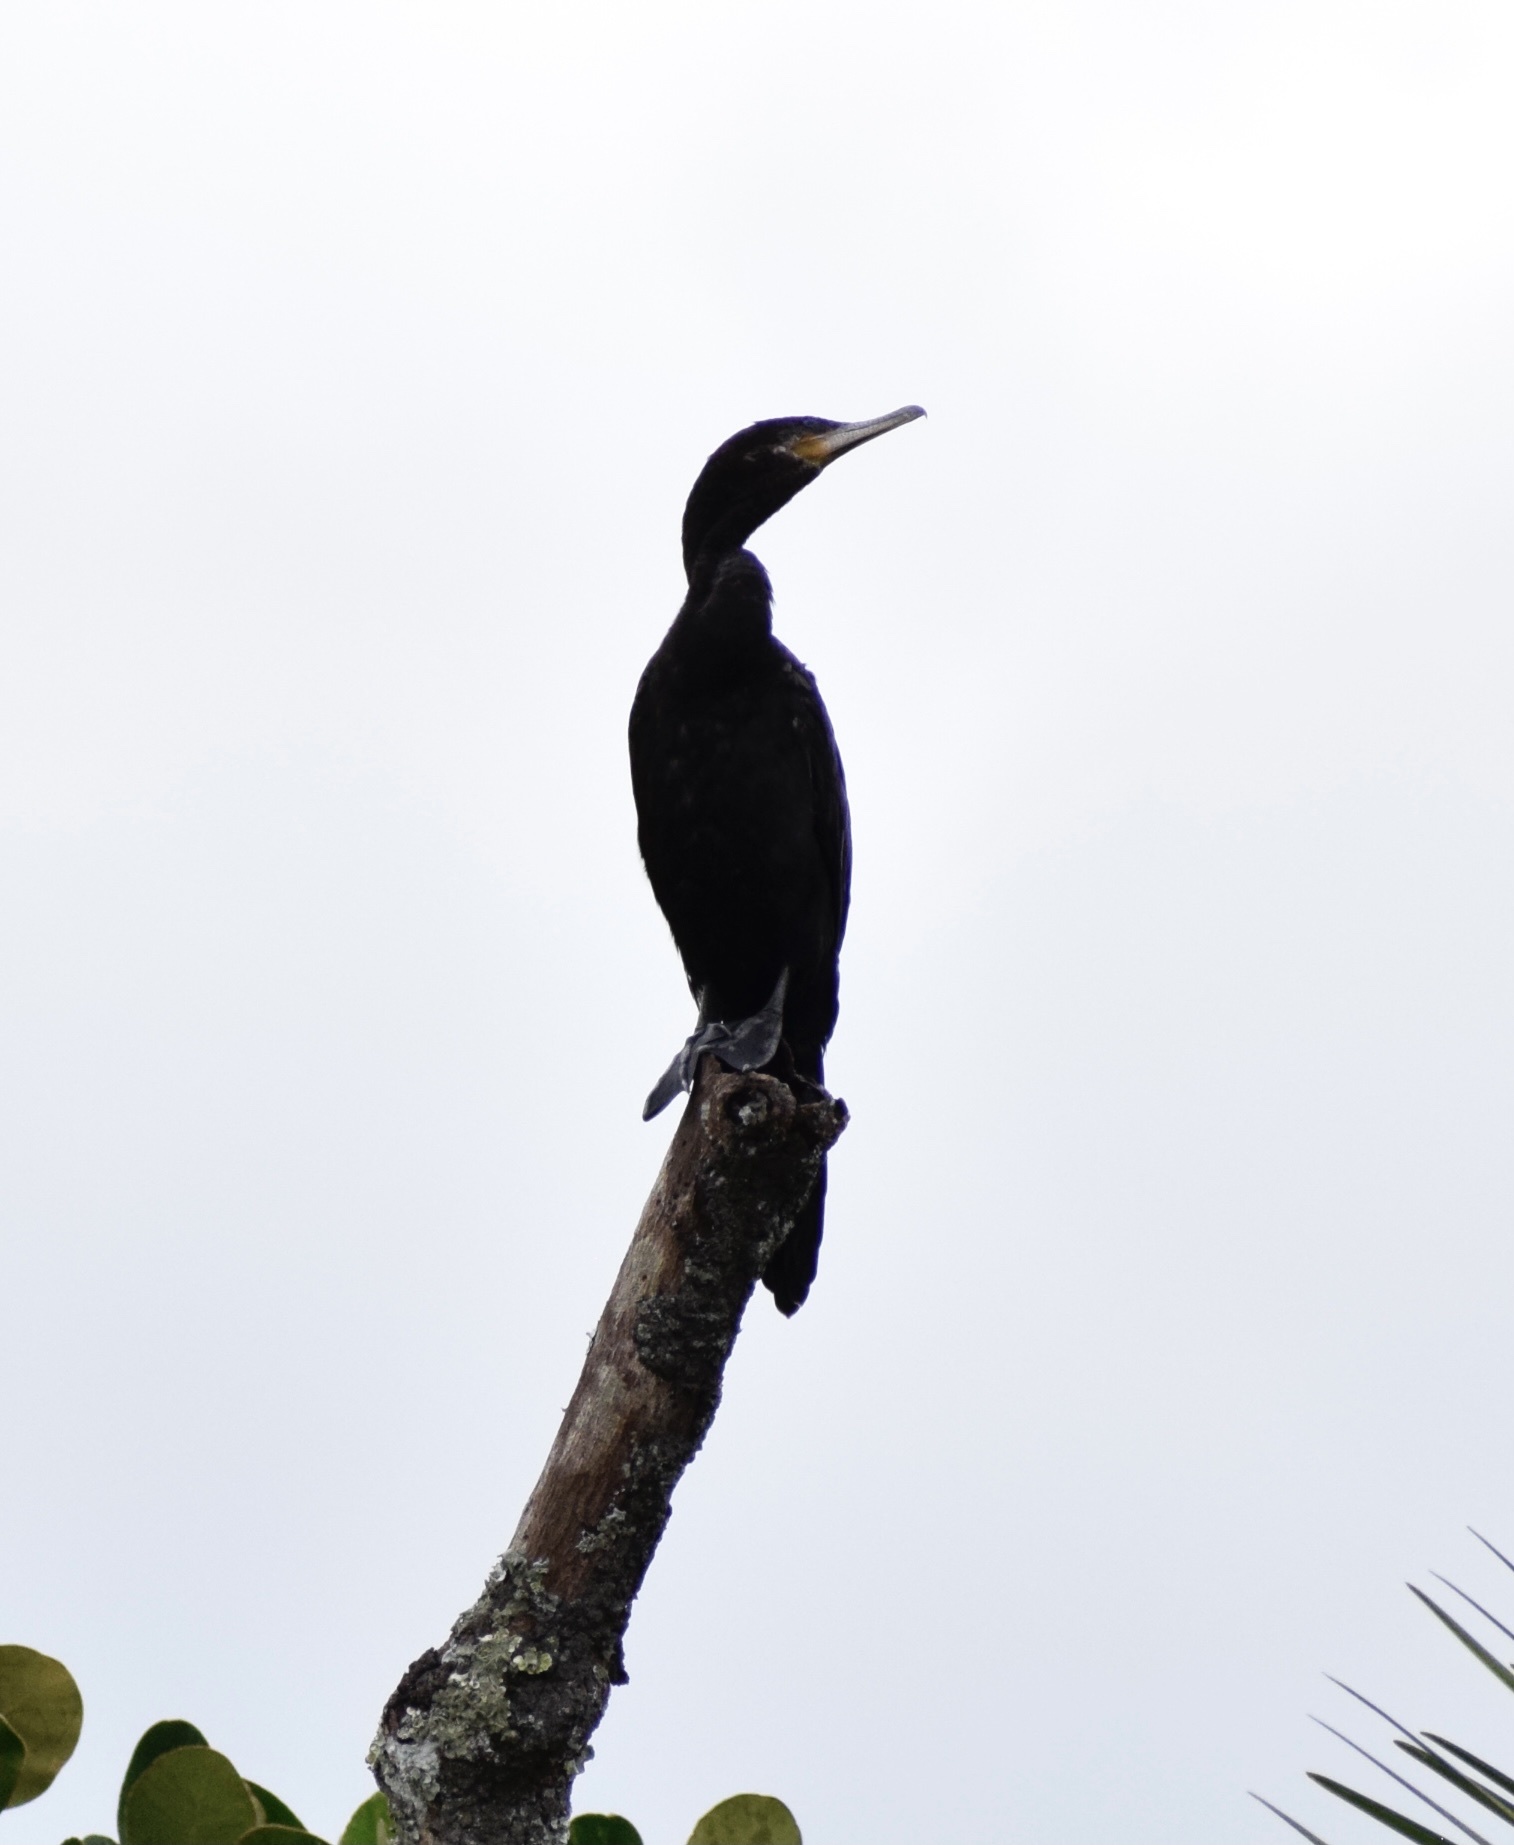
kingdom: Animalia
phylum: Chordata
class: Aves
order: Suliformes
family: Phalacrocoracidae
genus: Phalacrocorax
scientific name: Phalacrocorax brasilianus
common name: Neotropic cormorant
